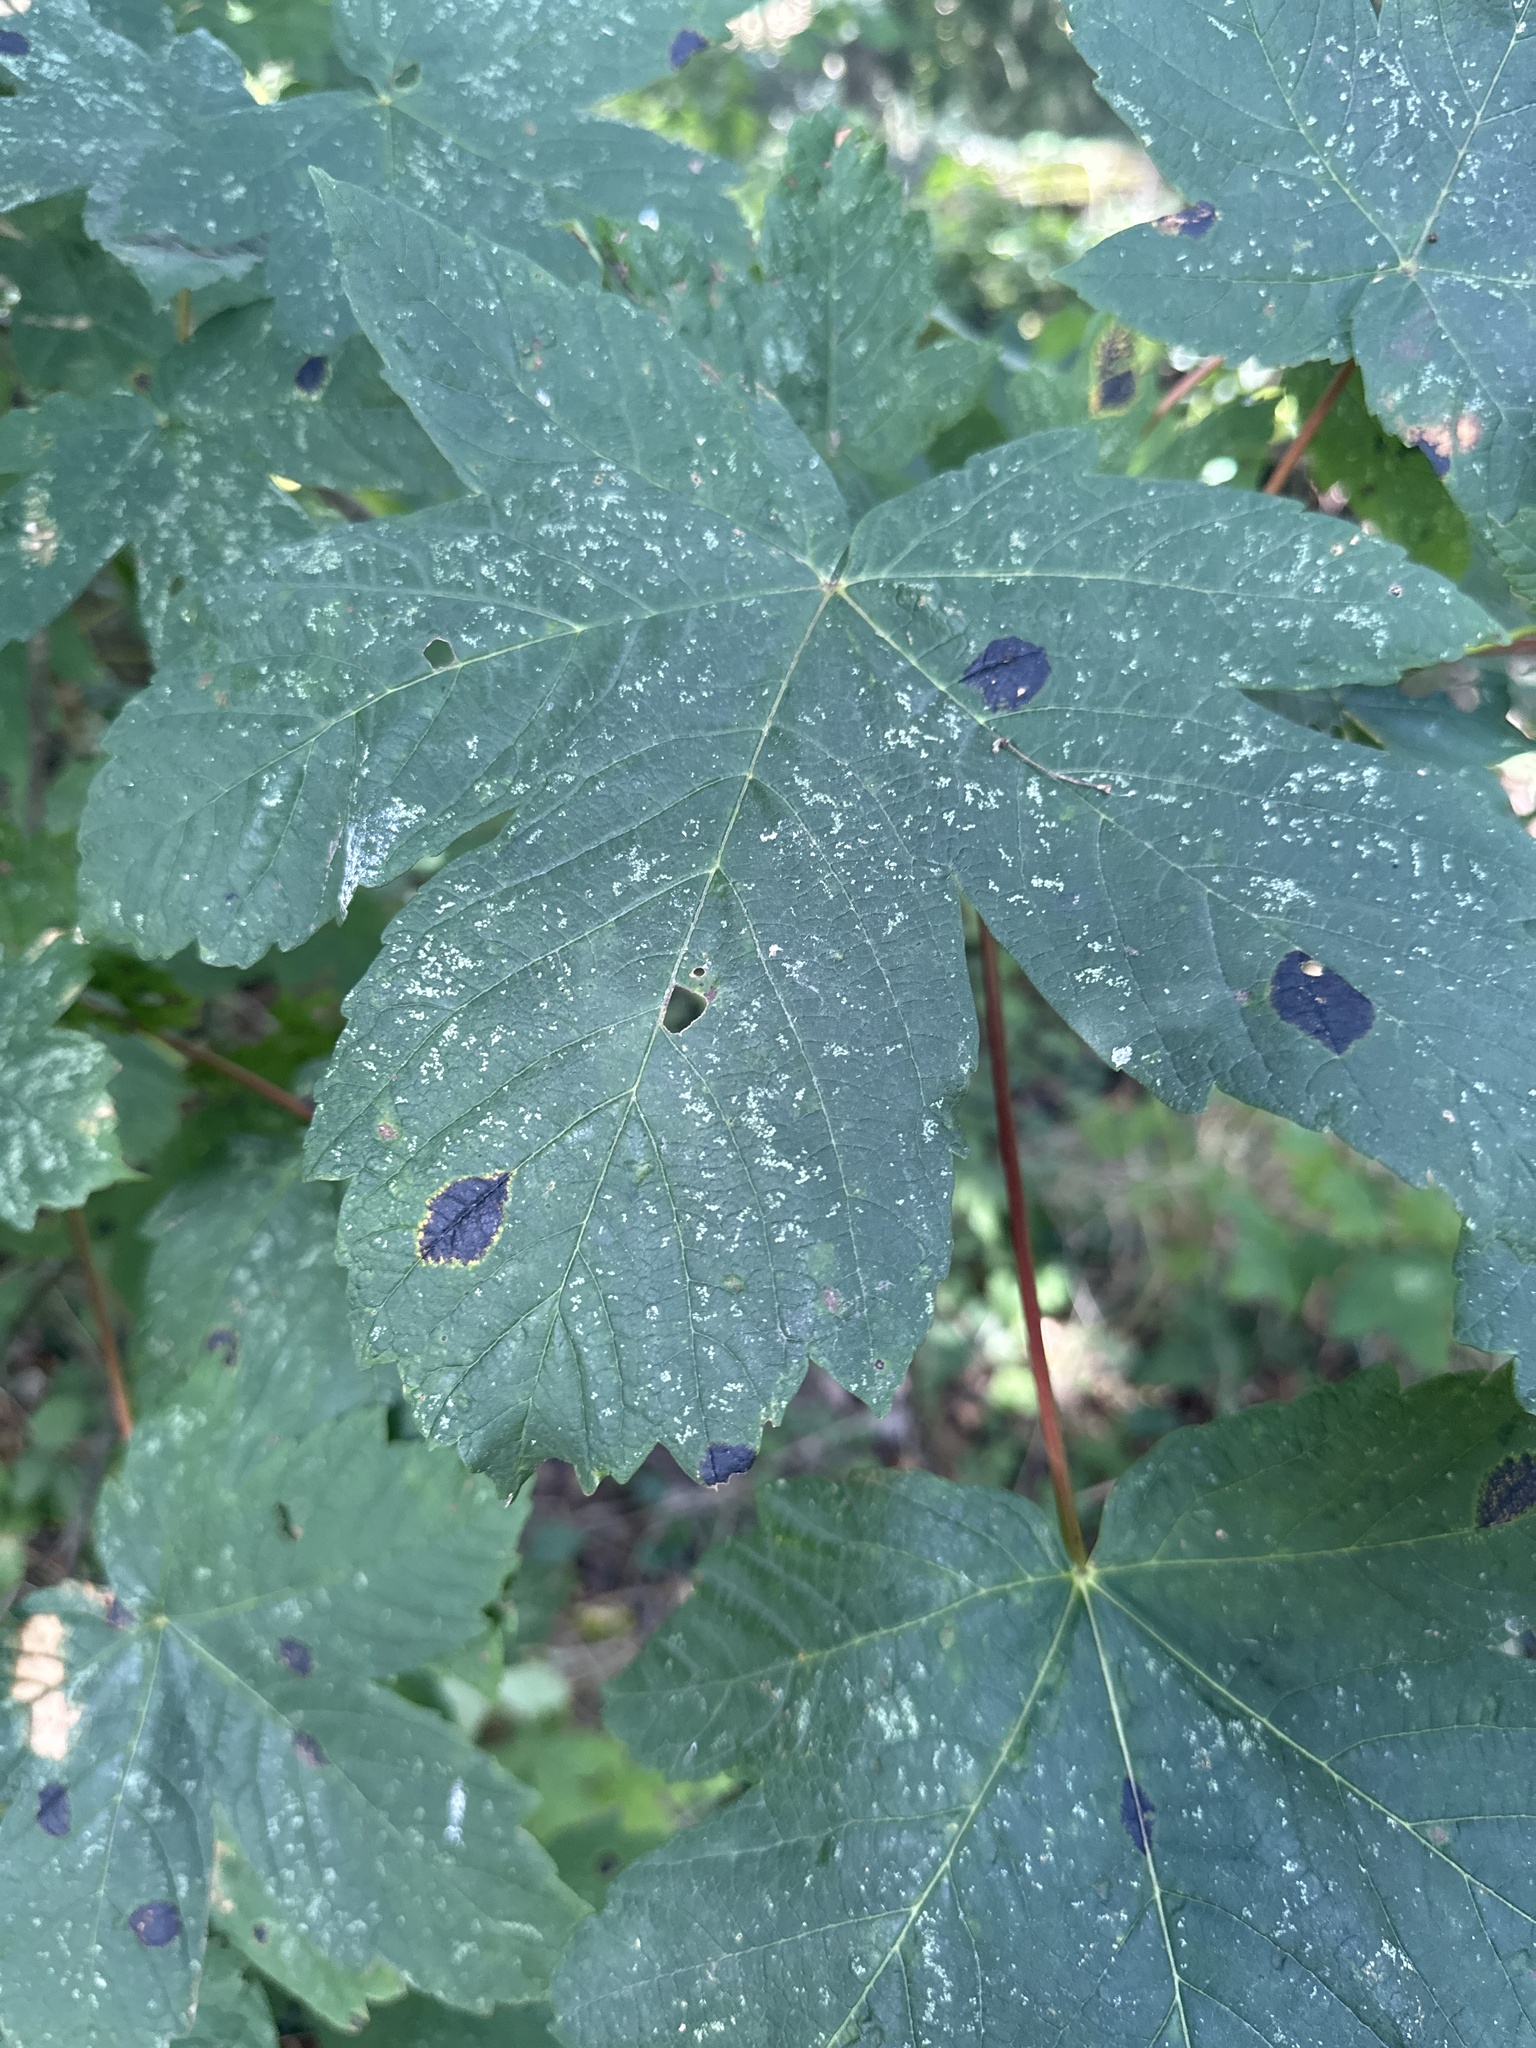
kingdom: Fungi
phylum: Ascomycota
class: Leotiomycetes
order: Rhytismatales
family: Rhytismataceae
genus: Rhytisma
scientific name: Rhytisma acerinum
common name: European tar spot
